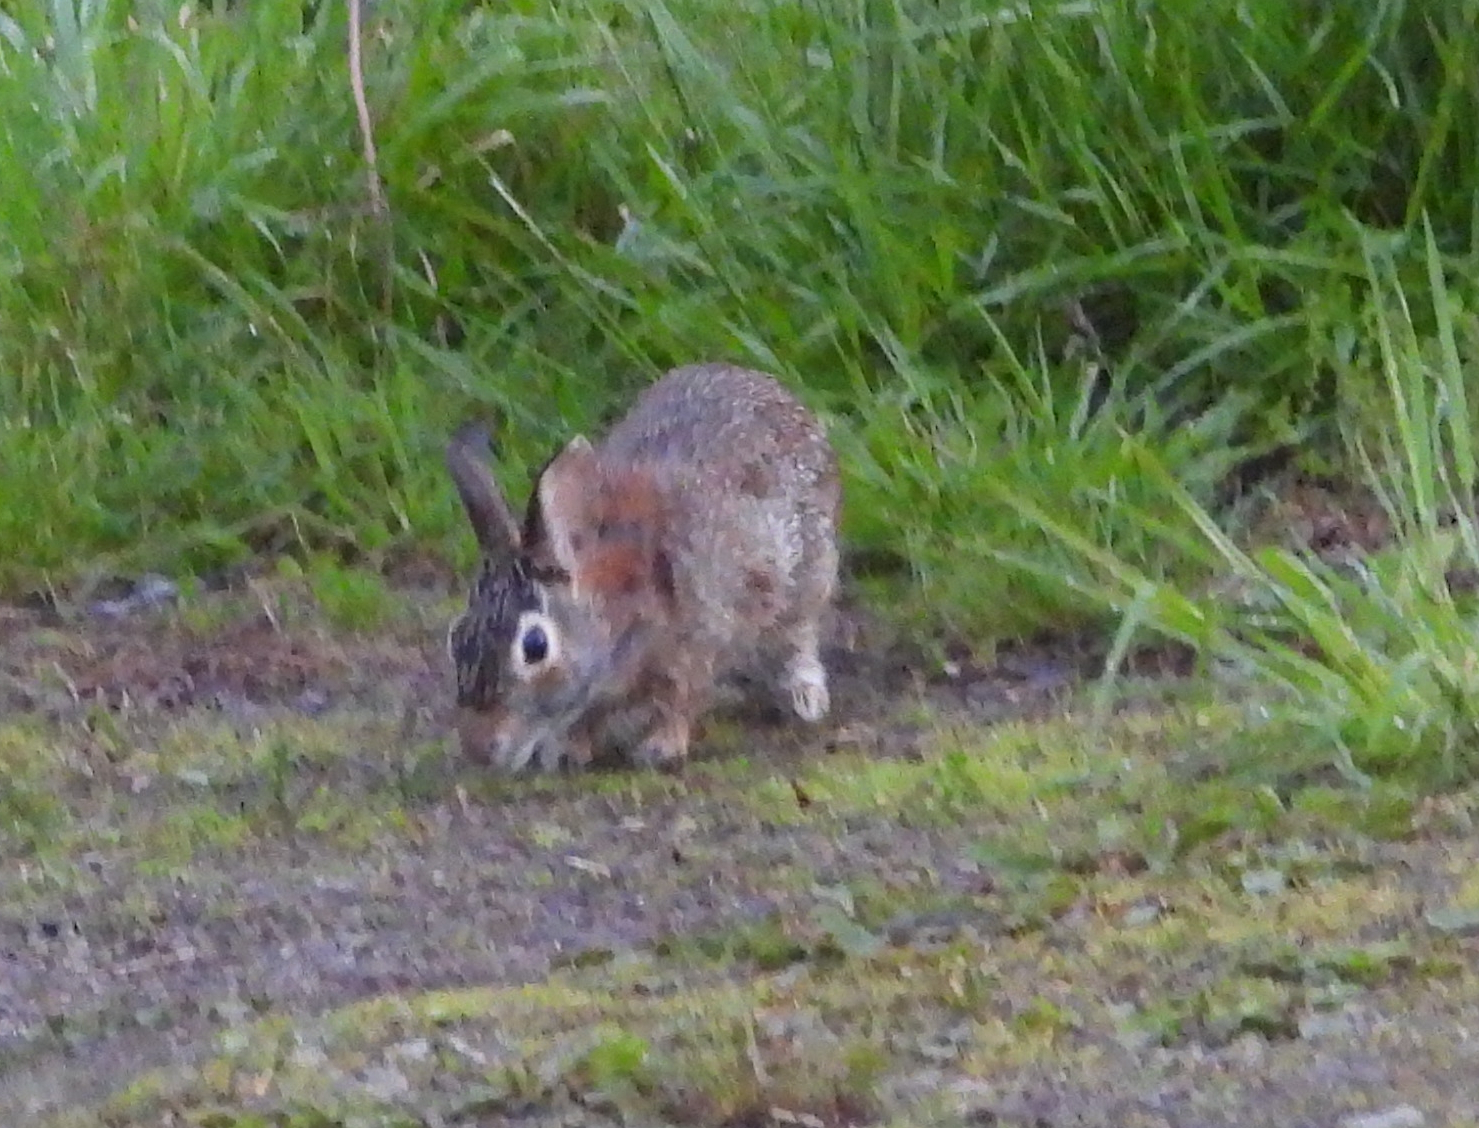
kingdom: Animalia
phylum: Chordata
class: Mammalia
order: Lagomorpha
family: Leporidae
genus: Sylvilagus
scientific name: Sylvilagus floridanus
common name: Eastern cottontail
